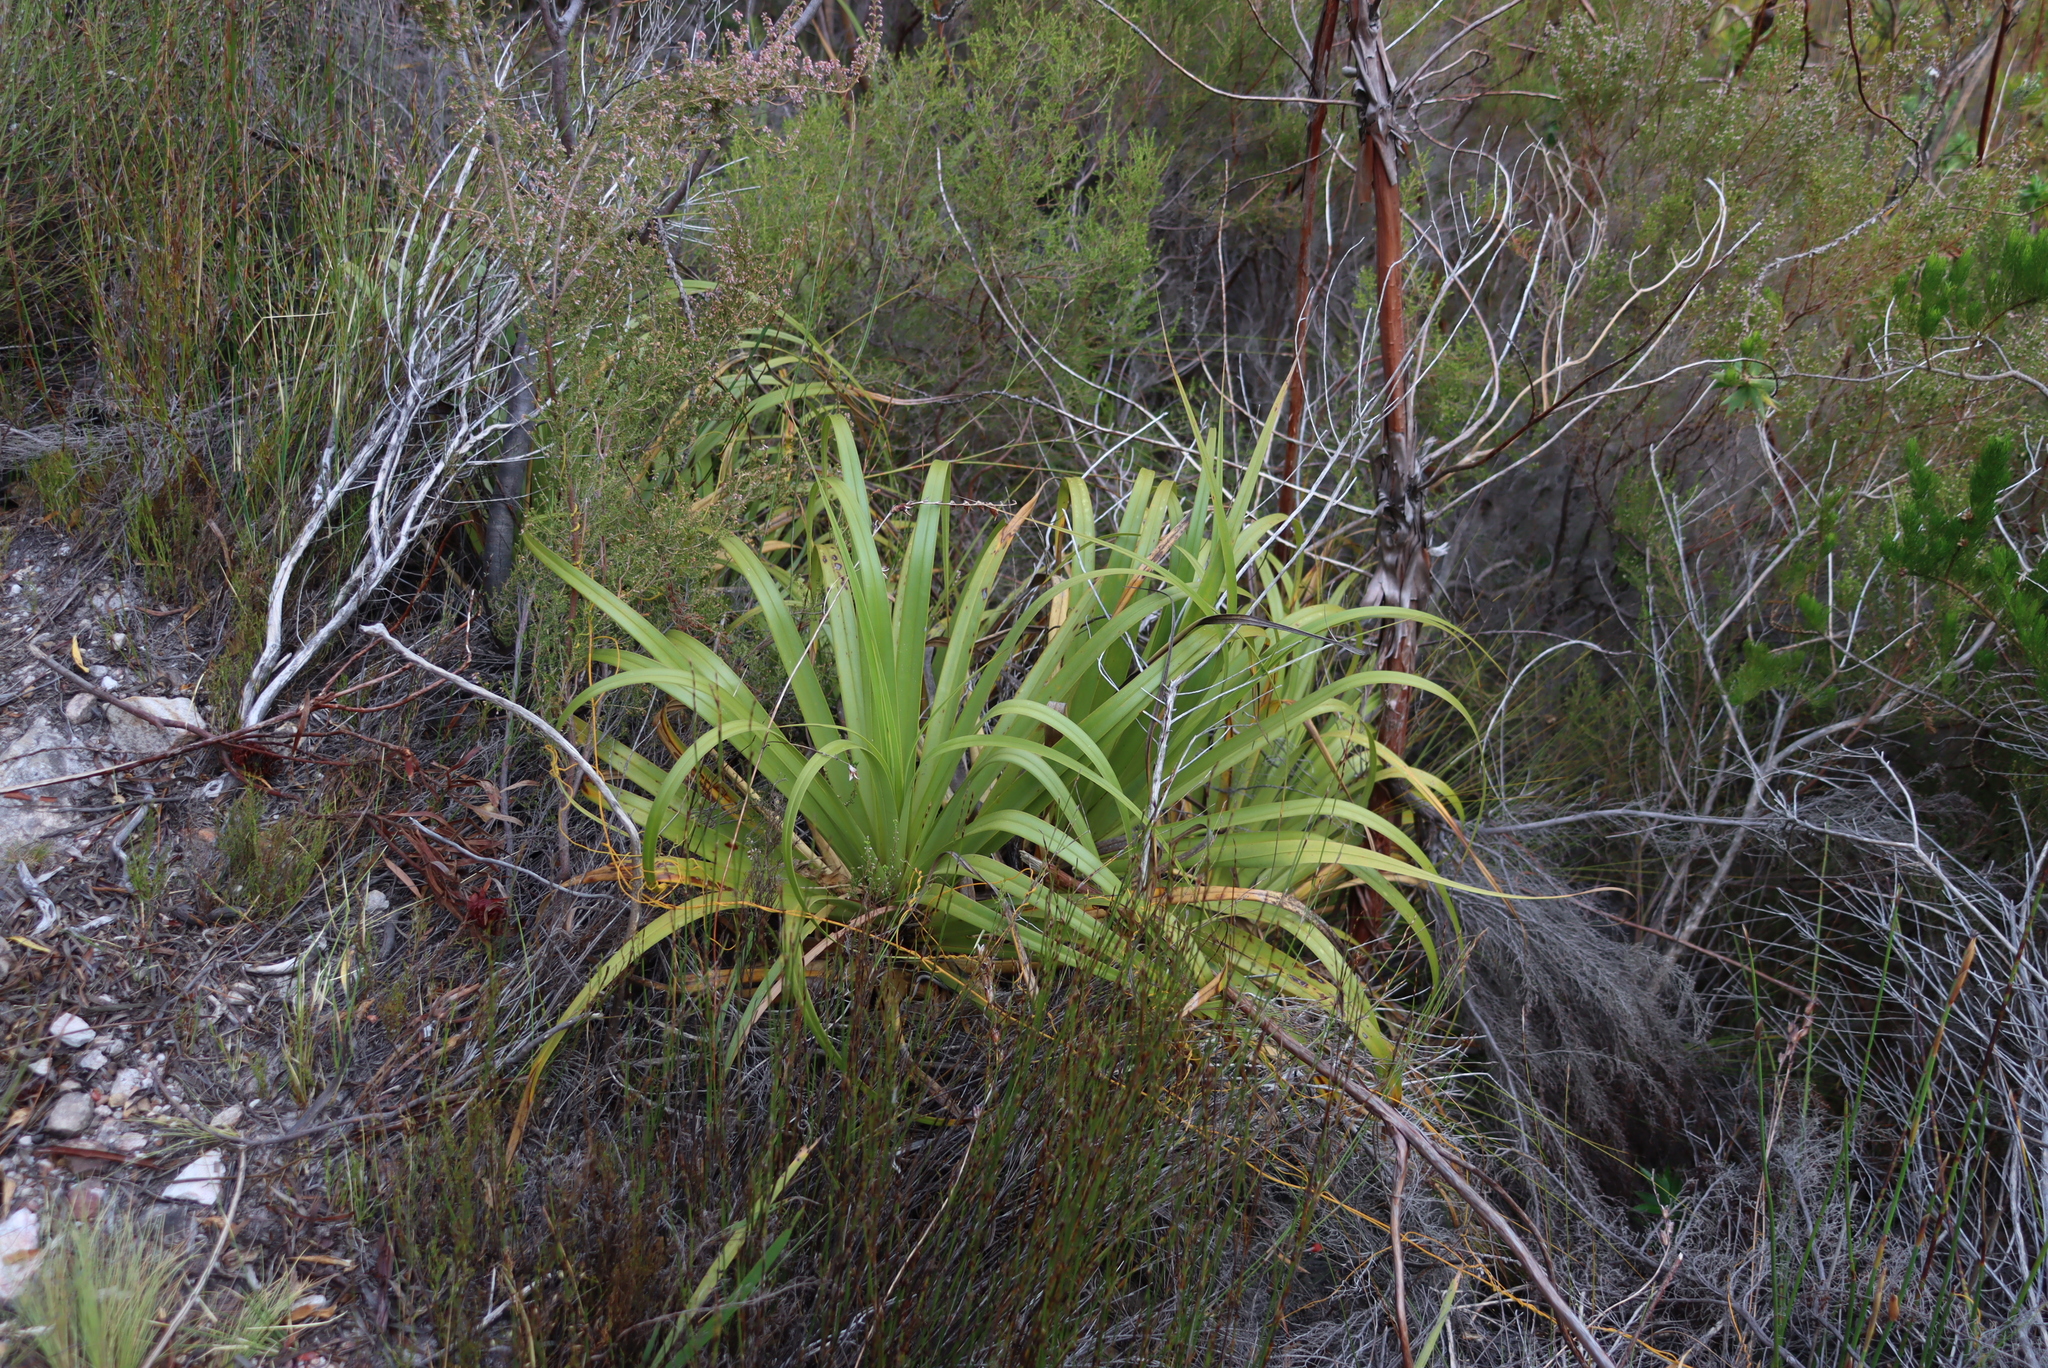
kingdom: Plantae
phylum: Tracheophyta
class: Liliopsida
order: Poales
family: Cyperaceae
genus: Tetraria
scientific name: Tetraria thermalis
